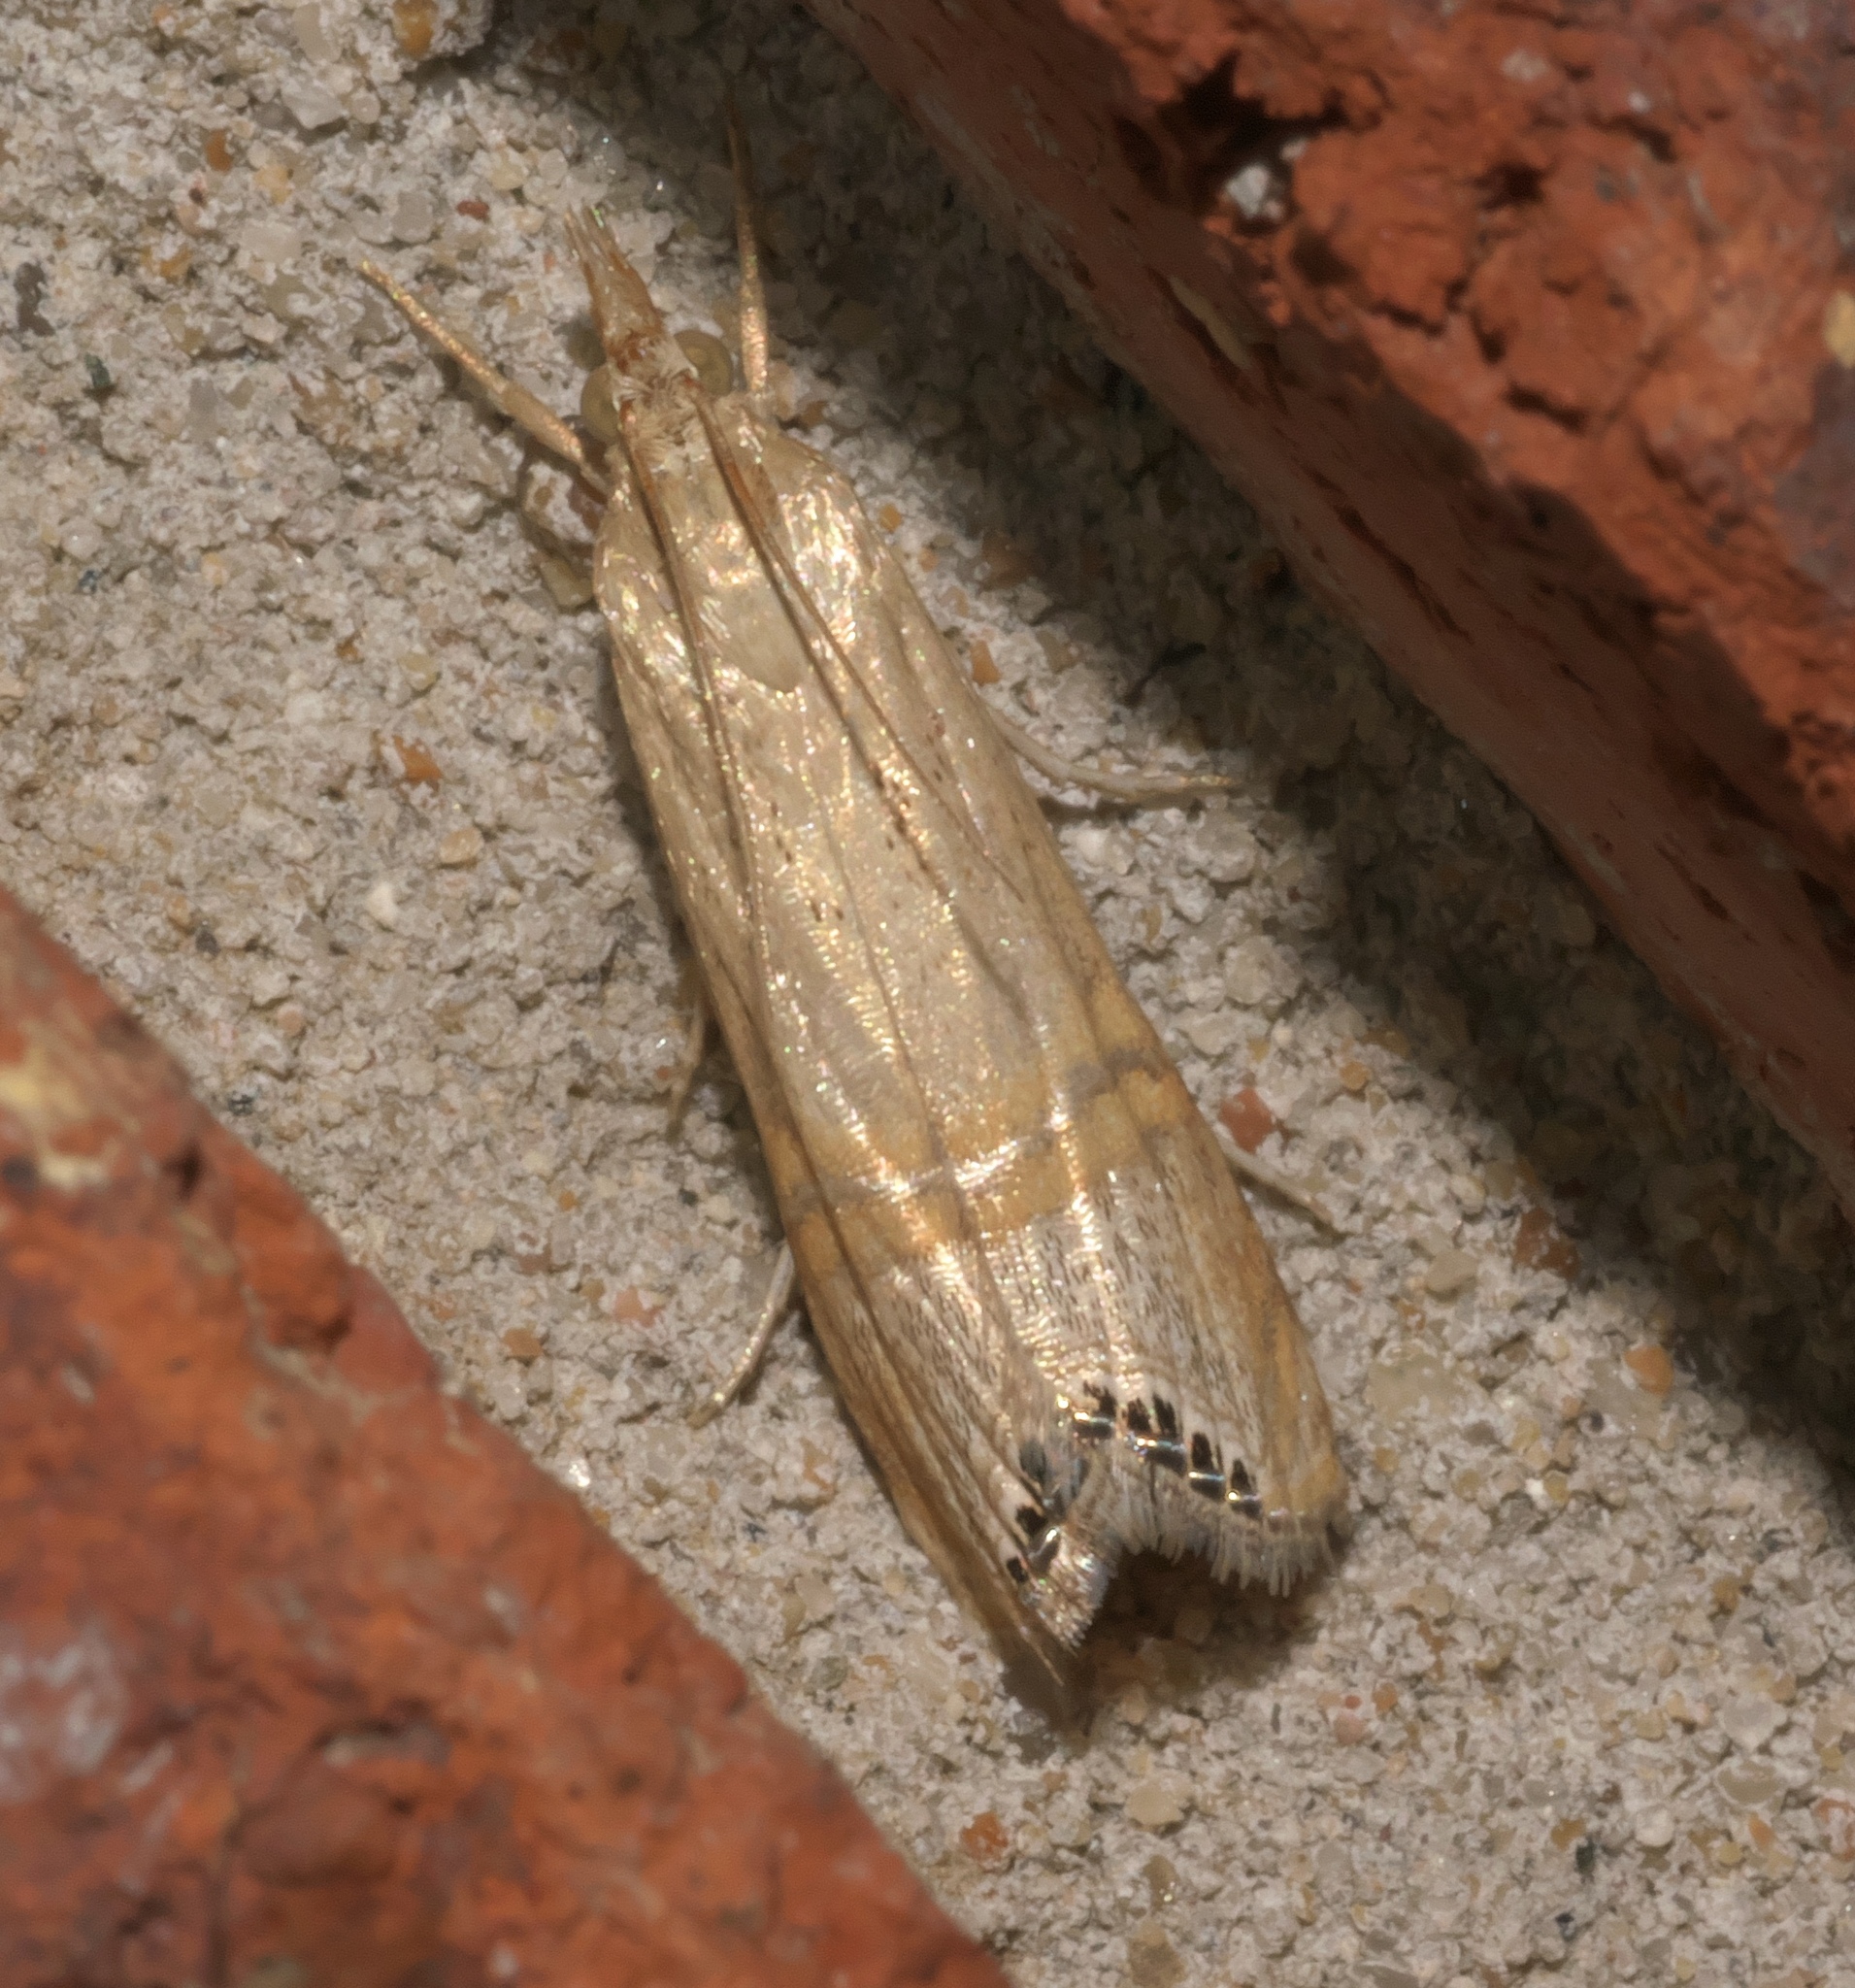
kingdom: Animalia
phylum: Arthropoda
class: Insecta
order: Lepidoptera
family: Crambidae
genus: Euchromius
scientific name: Euchromius ocellea
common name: Necklace veneer moth
